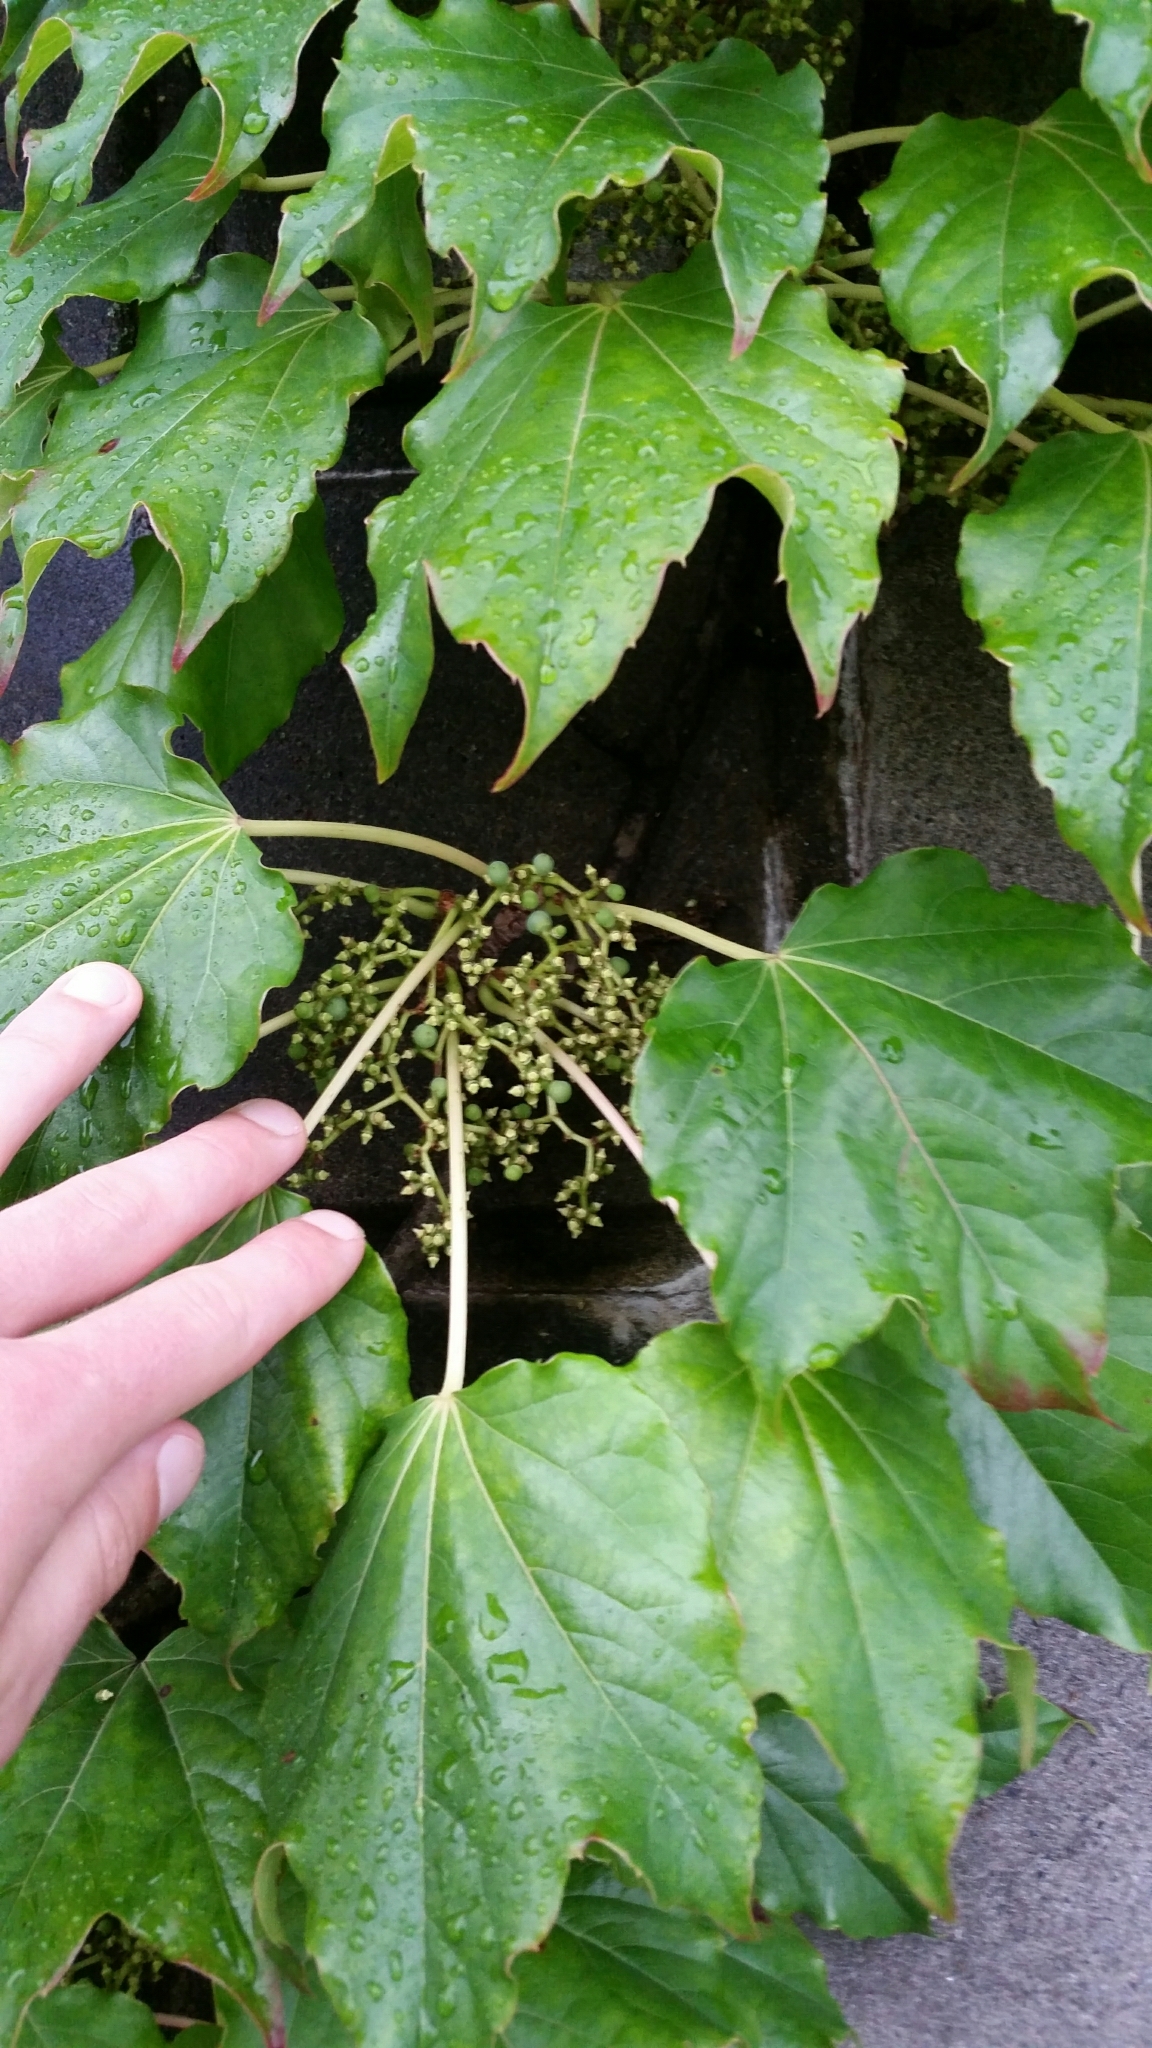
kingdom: Plantae
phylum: Tracheophyta
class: Magnoliopsida
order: Vitales
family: Vitaceae
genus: Parthenocissus
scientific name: Parthenocissus tricuspidata
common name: Boston ivy
